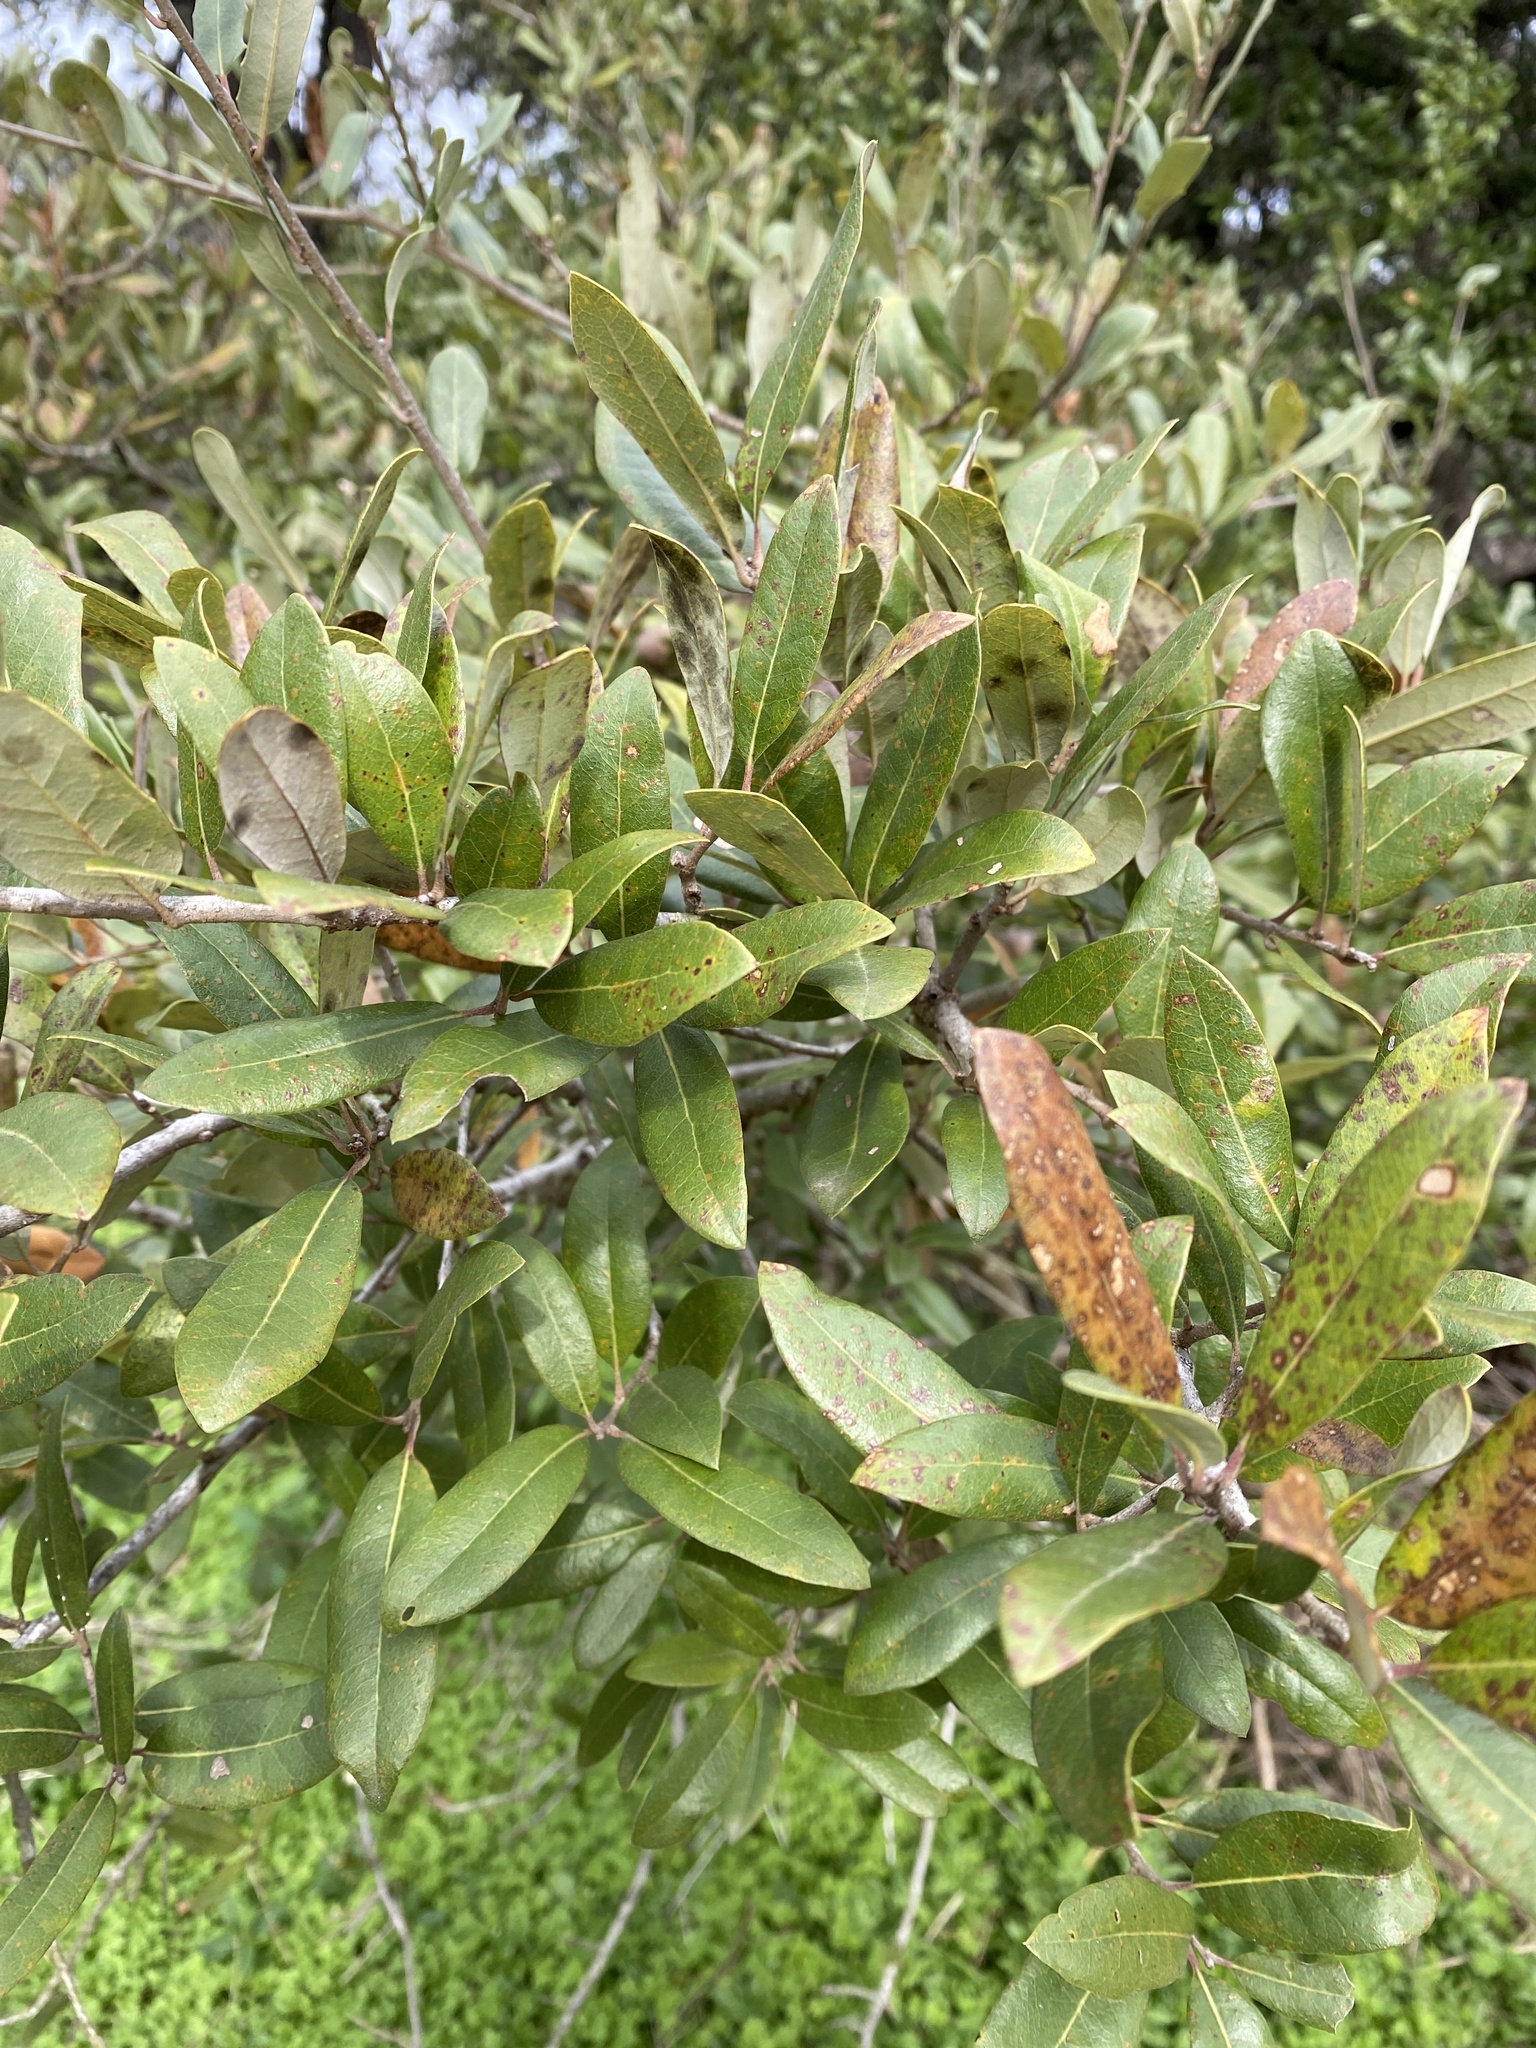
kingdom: Plantae
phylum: Tracheophyta
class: Magnoliopsida
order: Fagales
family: Fagaceae
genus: Quercus
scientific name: Quercus fusiformis
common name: Texas live oak
